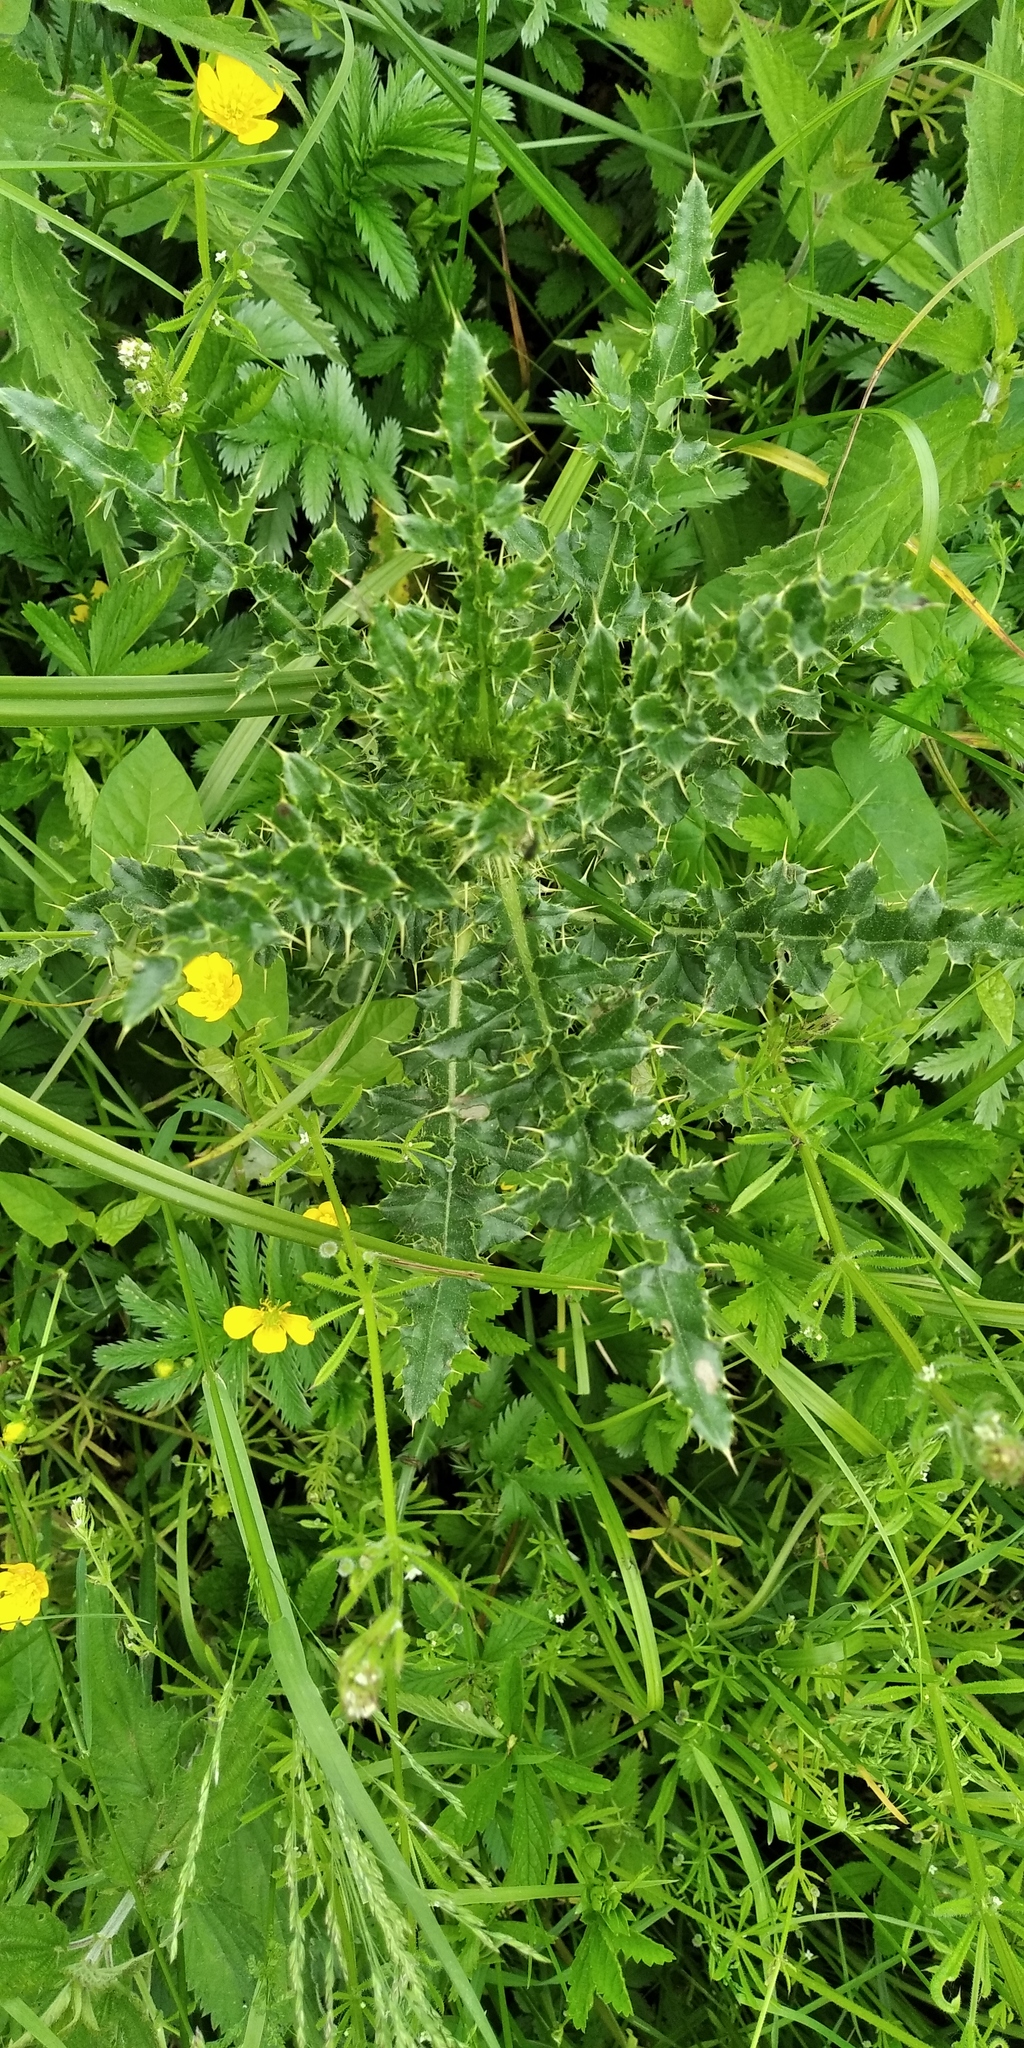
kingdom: Plantae
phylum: Tracheophyta
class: Magnoliopsida
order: Asterales
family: Asteraceae
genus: Carduus
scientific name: Carduus acanthoides
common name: Plumeless thistle
